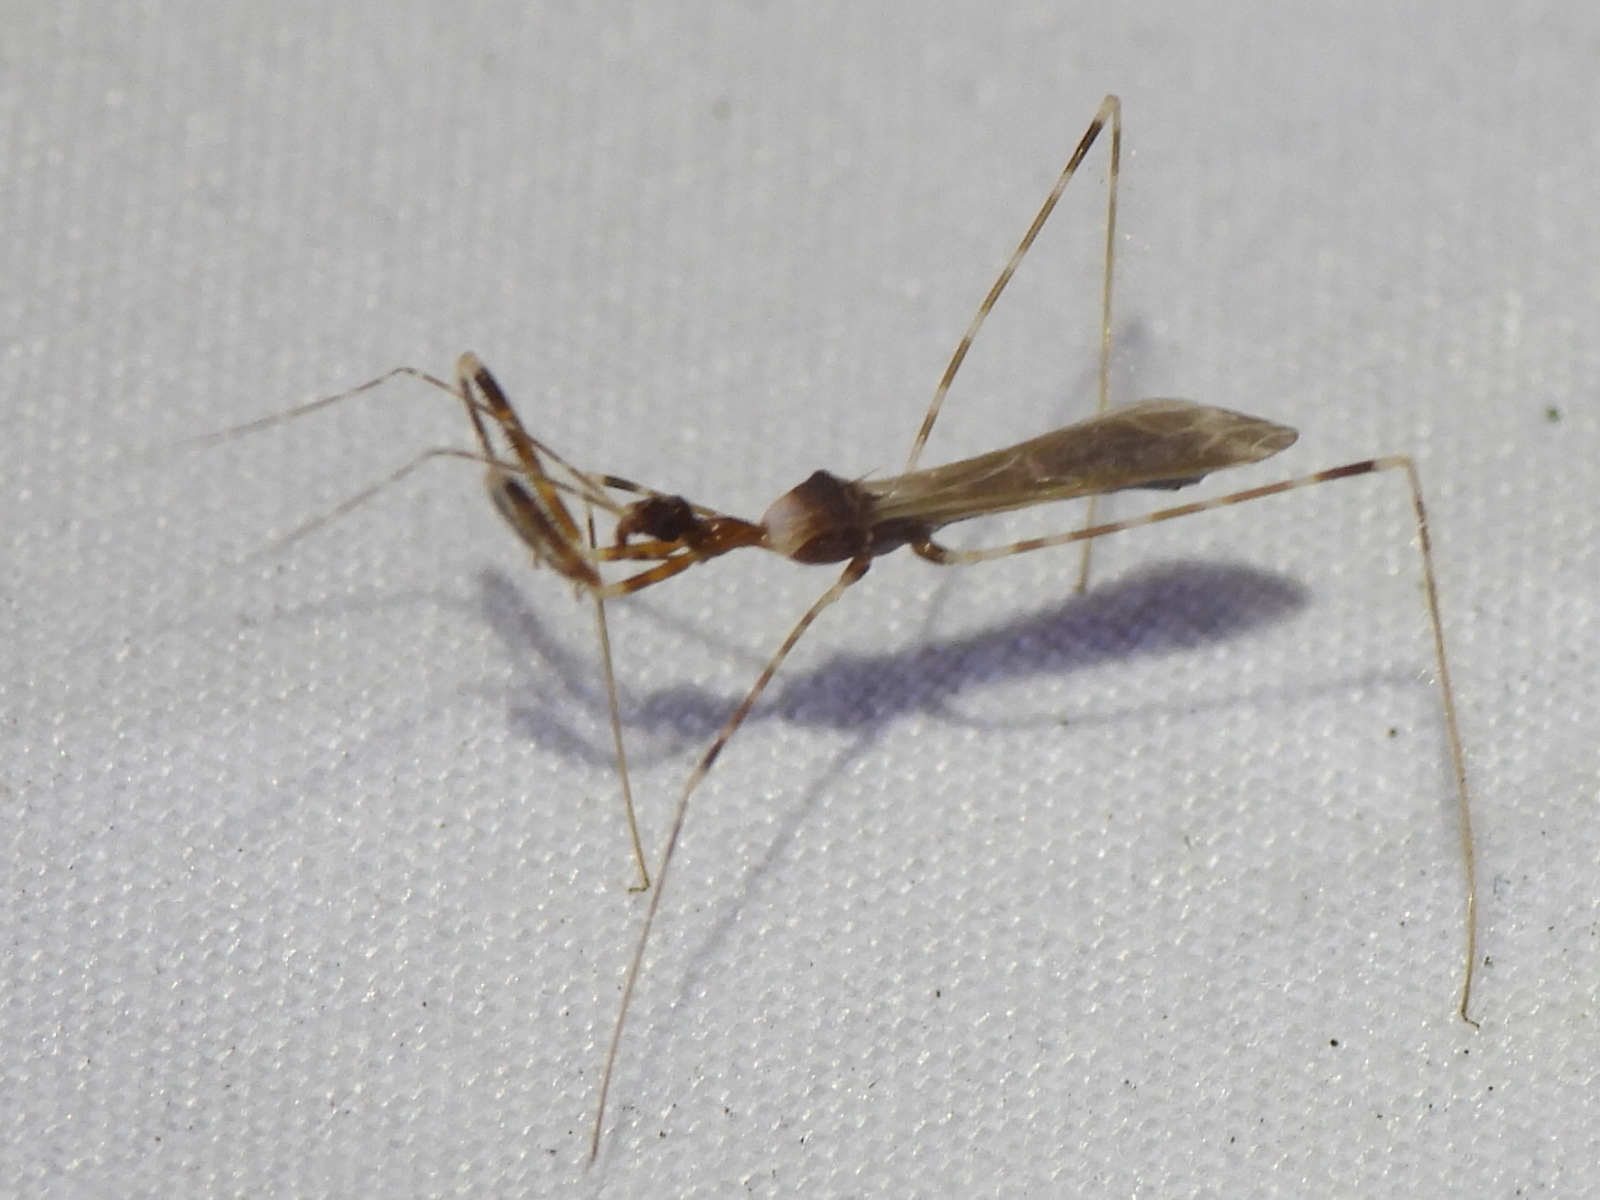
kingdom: Animalia
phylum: Arthropoda
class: Insecta
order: Hemiptera
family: Reduviidae
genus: Stenolemoides
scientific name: Stenolemoides arizonensis
